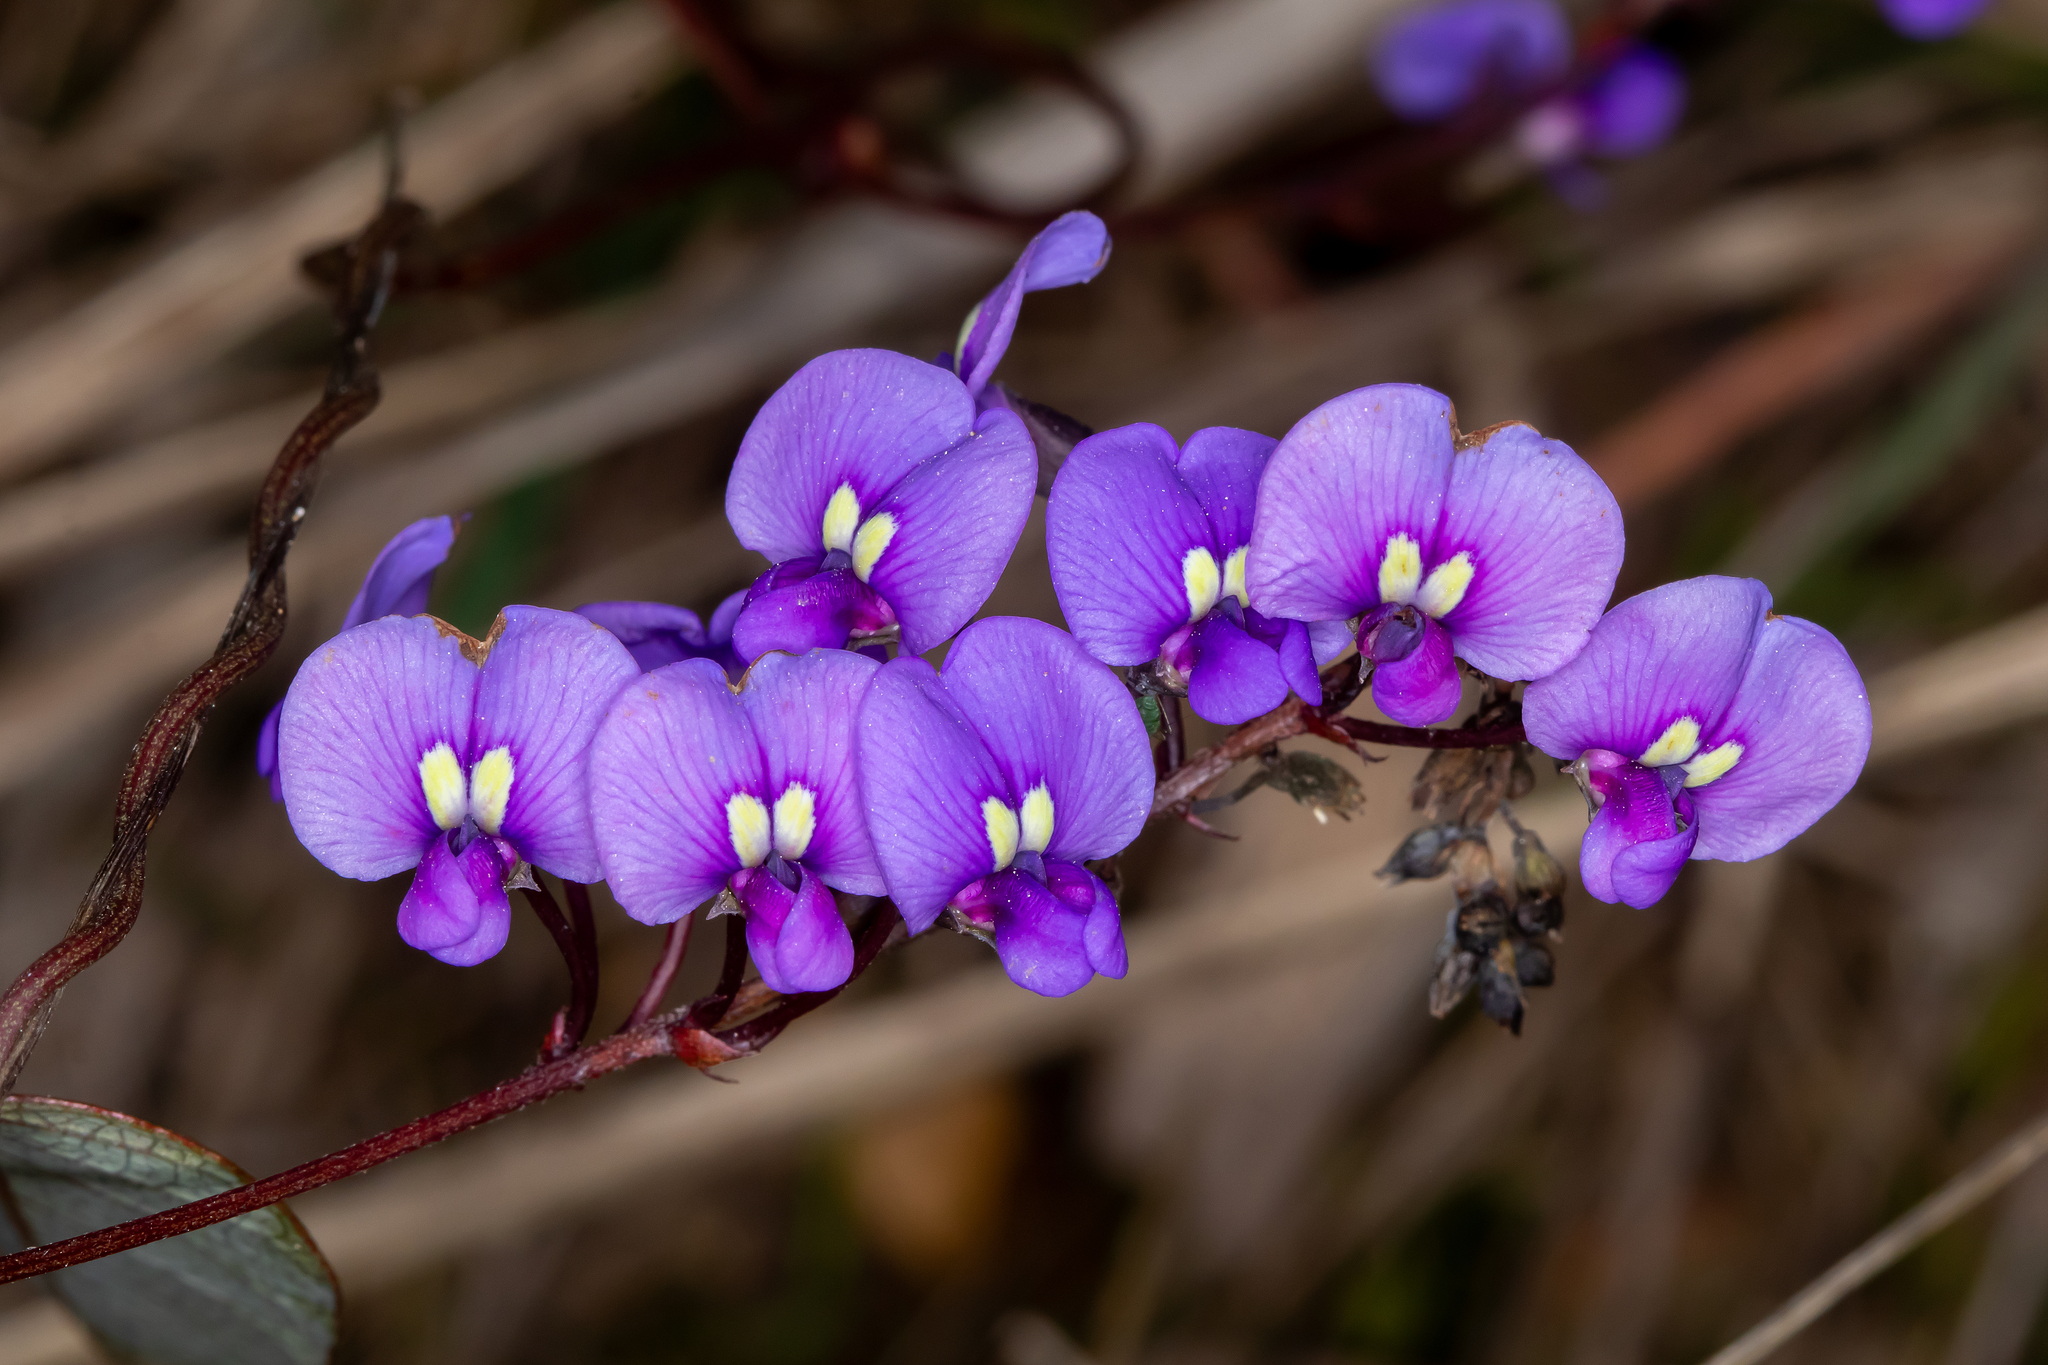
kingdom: Plantae
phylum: Tracheophyta
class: Magnoliopsida
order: Fabales
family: Fabaceae
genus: Hardenbergia
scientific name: Hardenbergia violacea
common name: Coral-pea
